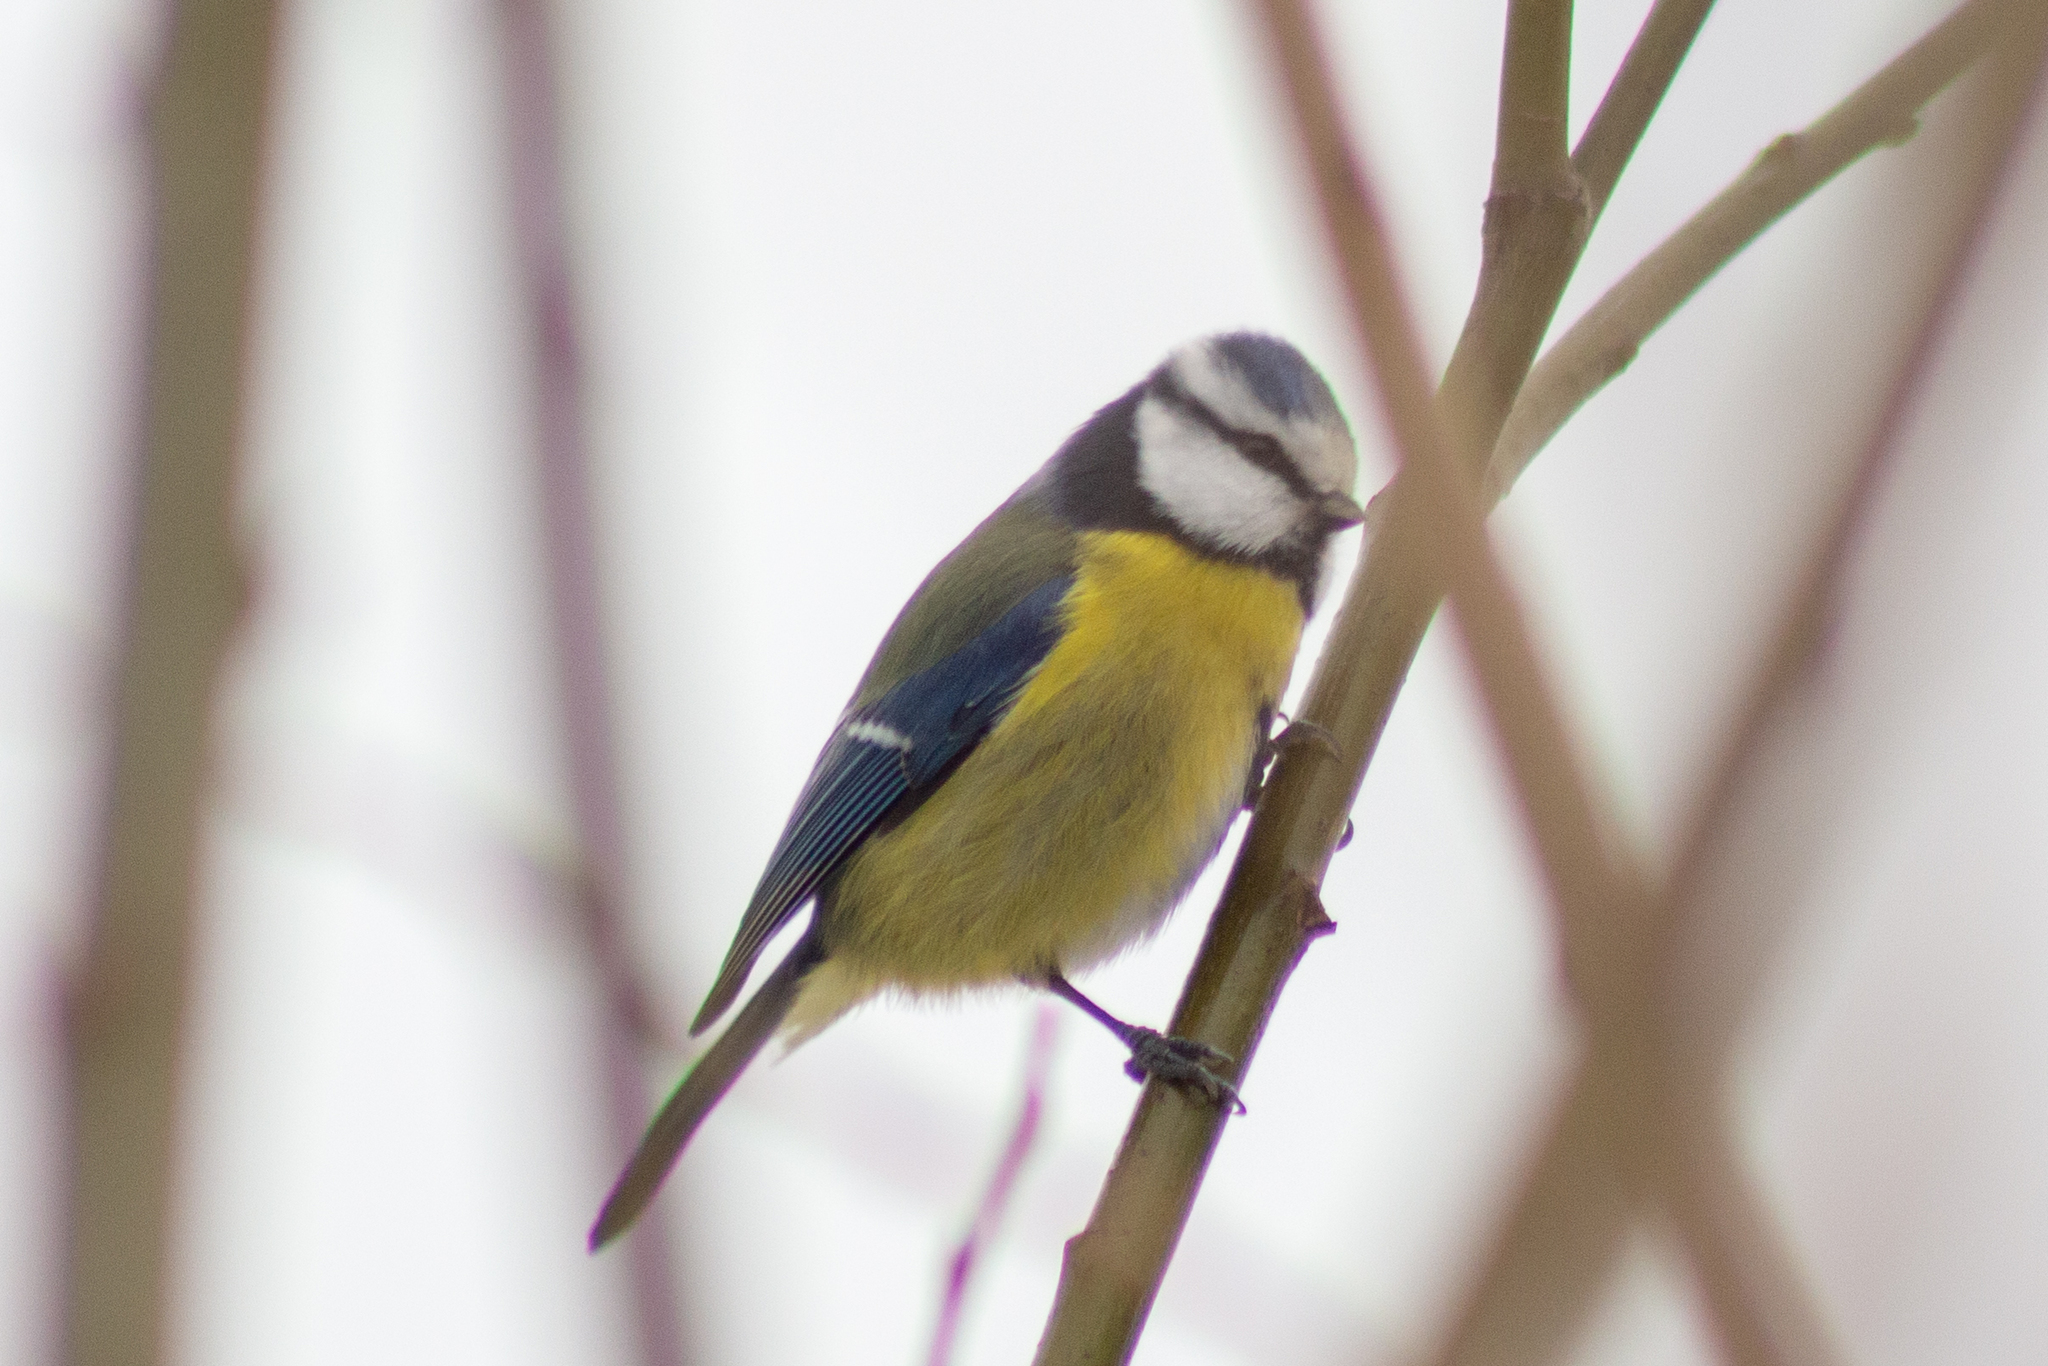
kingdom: Animalia
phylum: Chordata
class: Aves
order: Passeriformes
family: Paridae
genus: Cyanistes
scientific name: Cyanistes caeruleus
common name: Eurasian blue tit
